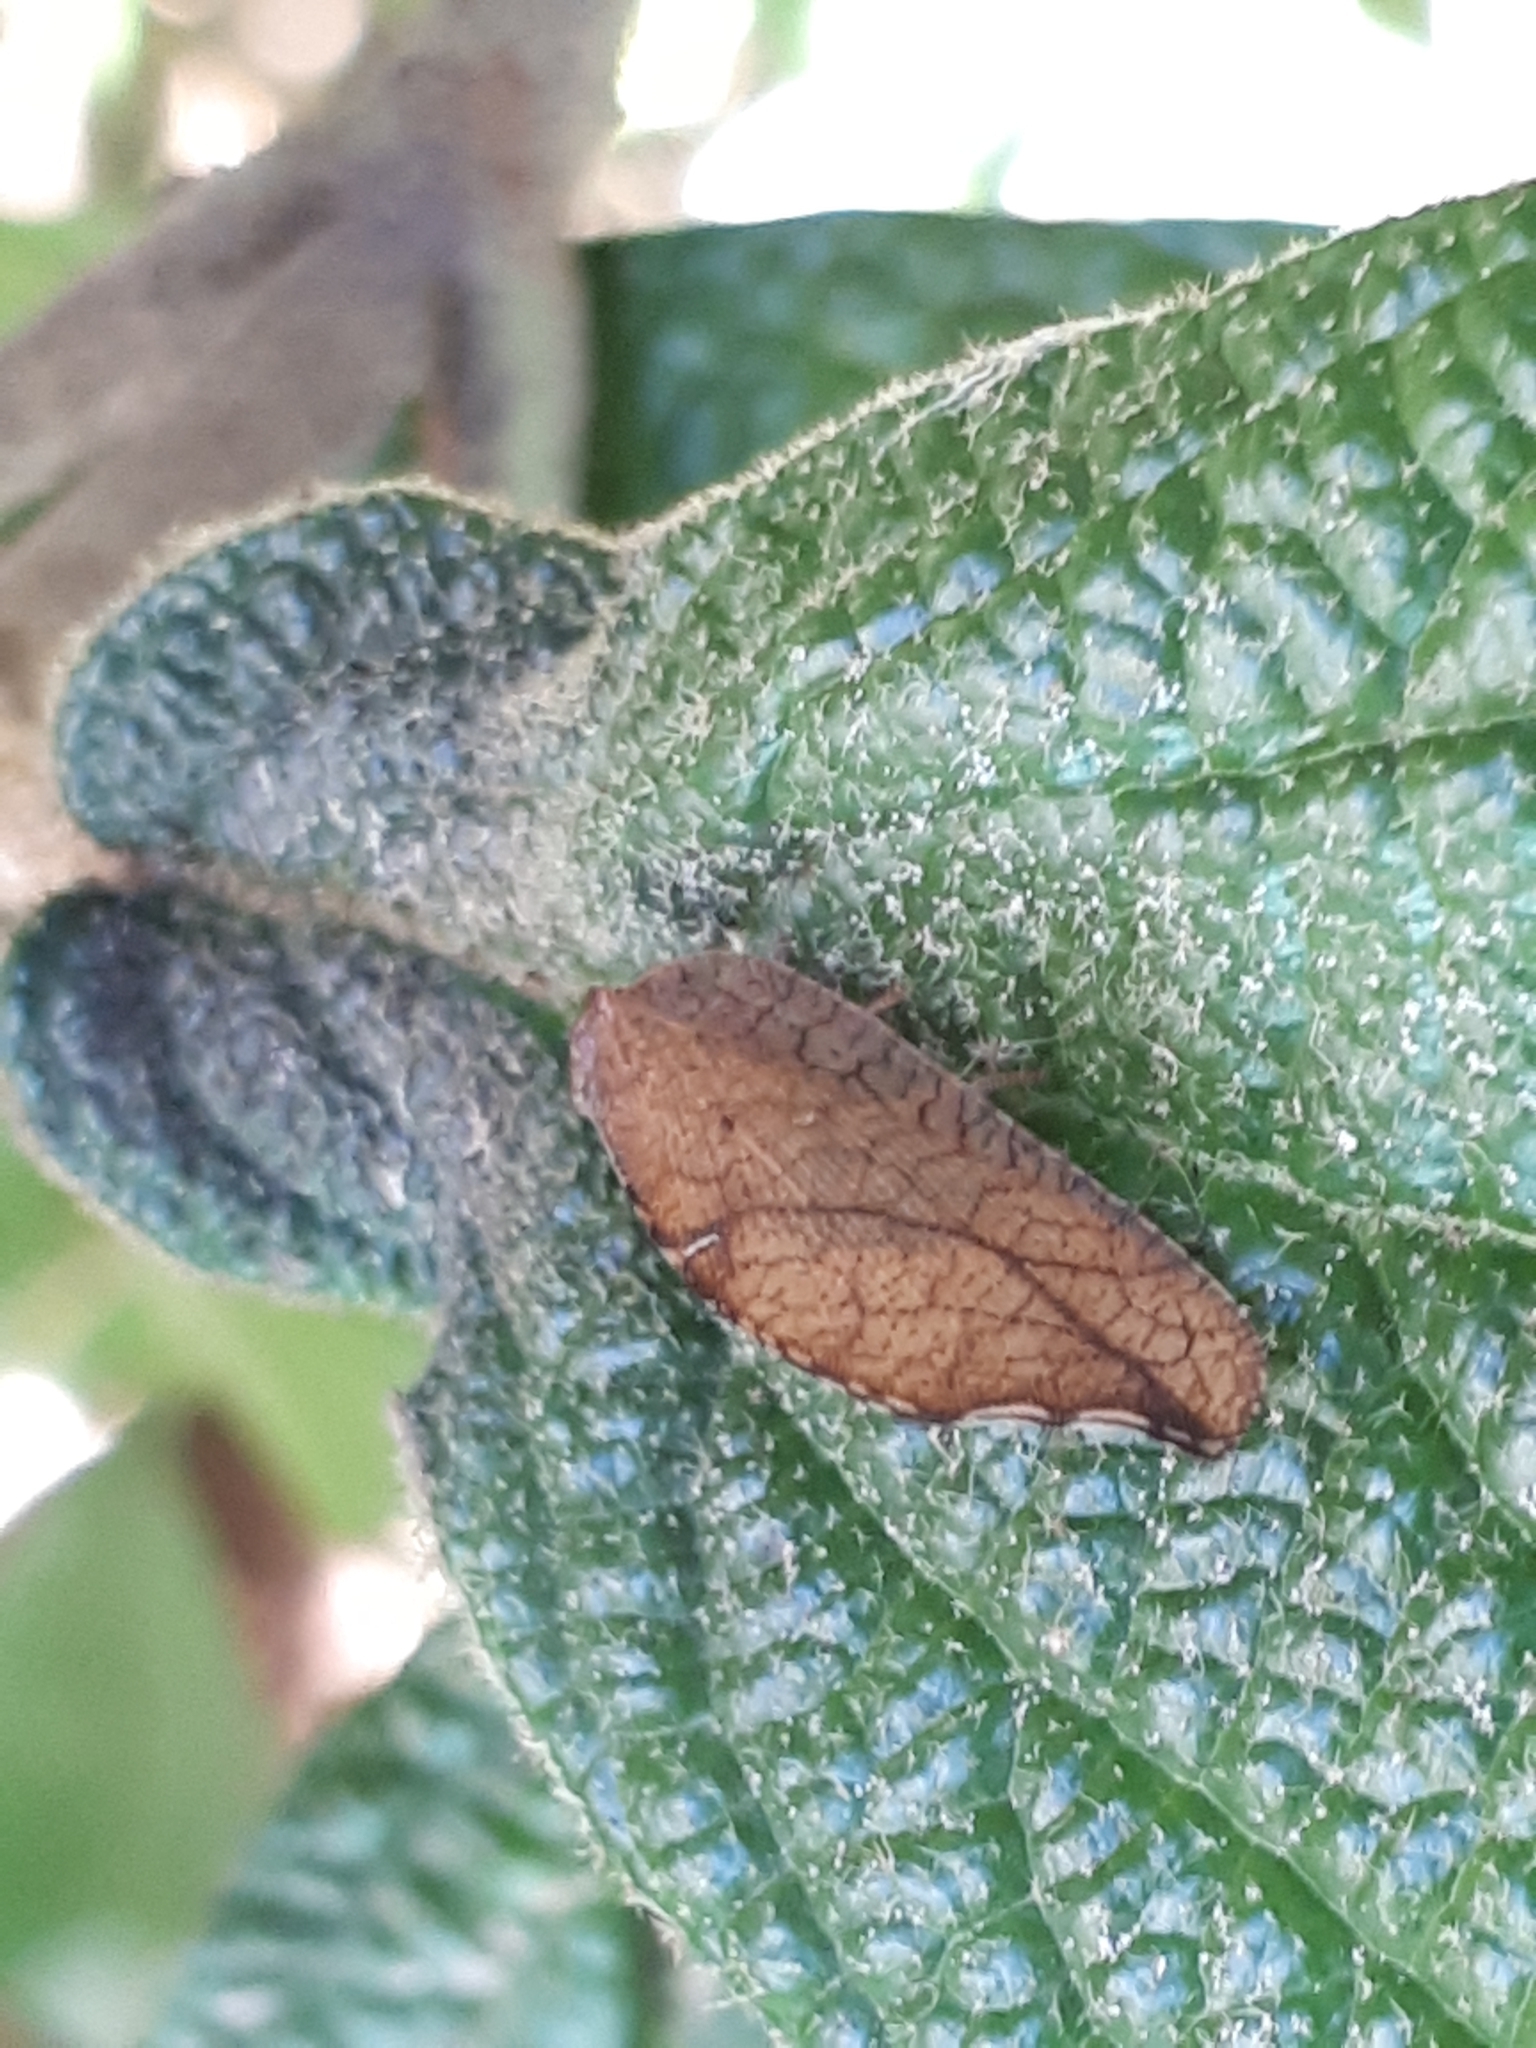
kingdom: Animalia
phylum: Arthropoda
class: Insecta
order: Neuroptera
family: Hemerobiidae
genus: Drepanepteryx
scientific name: Drepanepteryx phalaenoides
